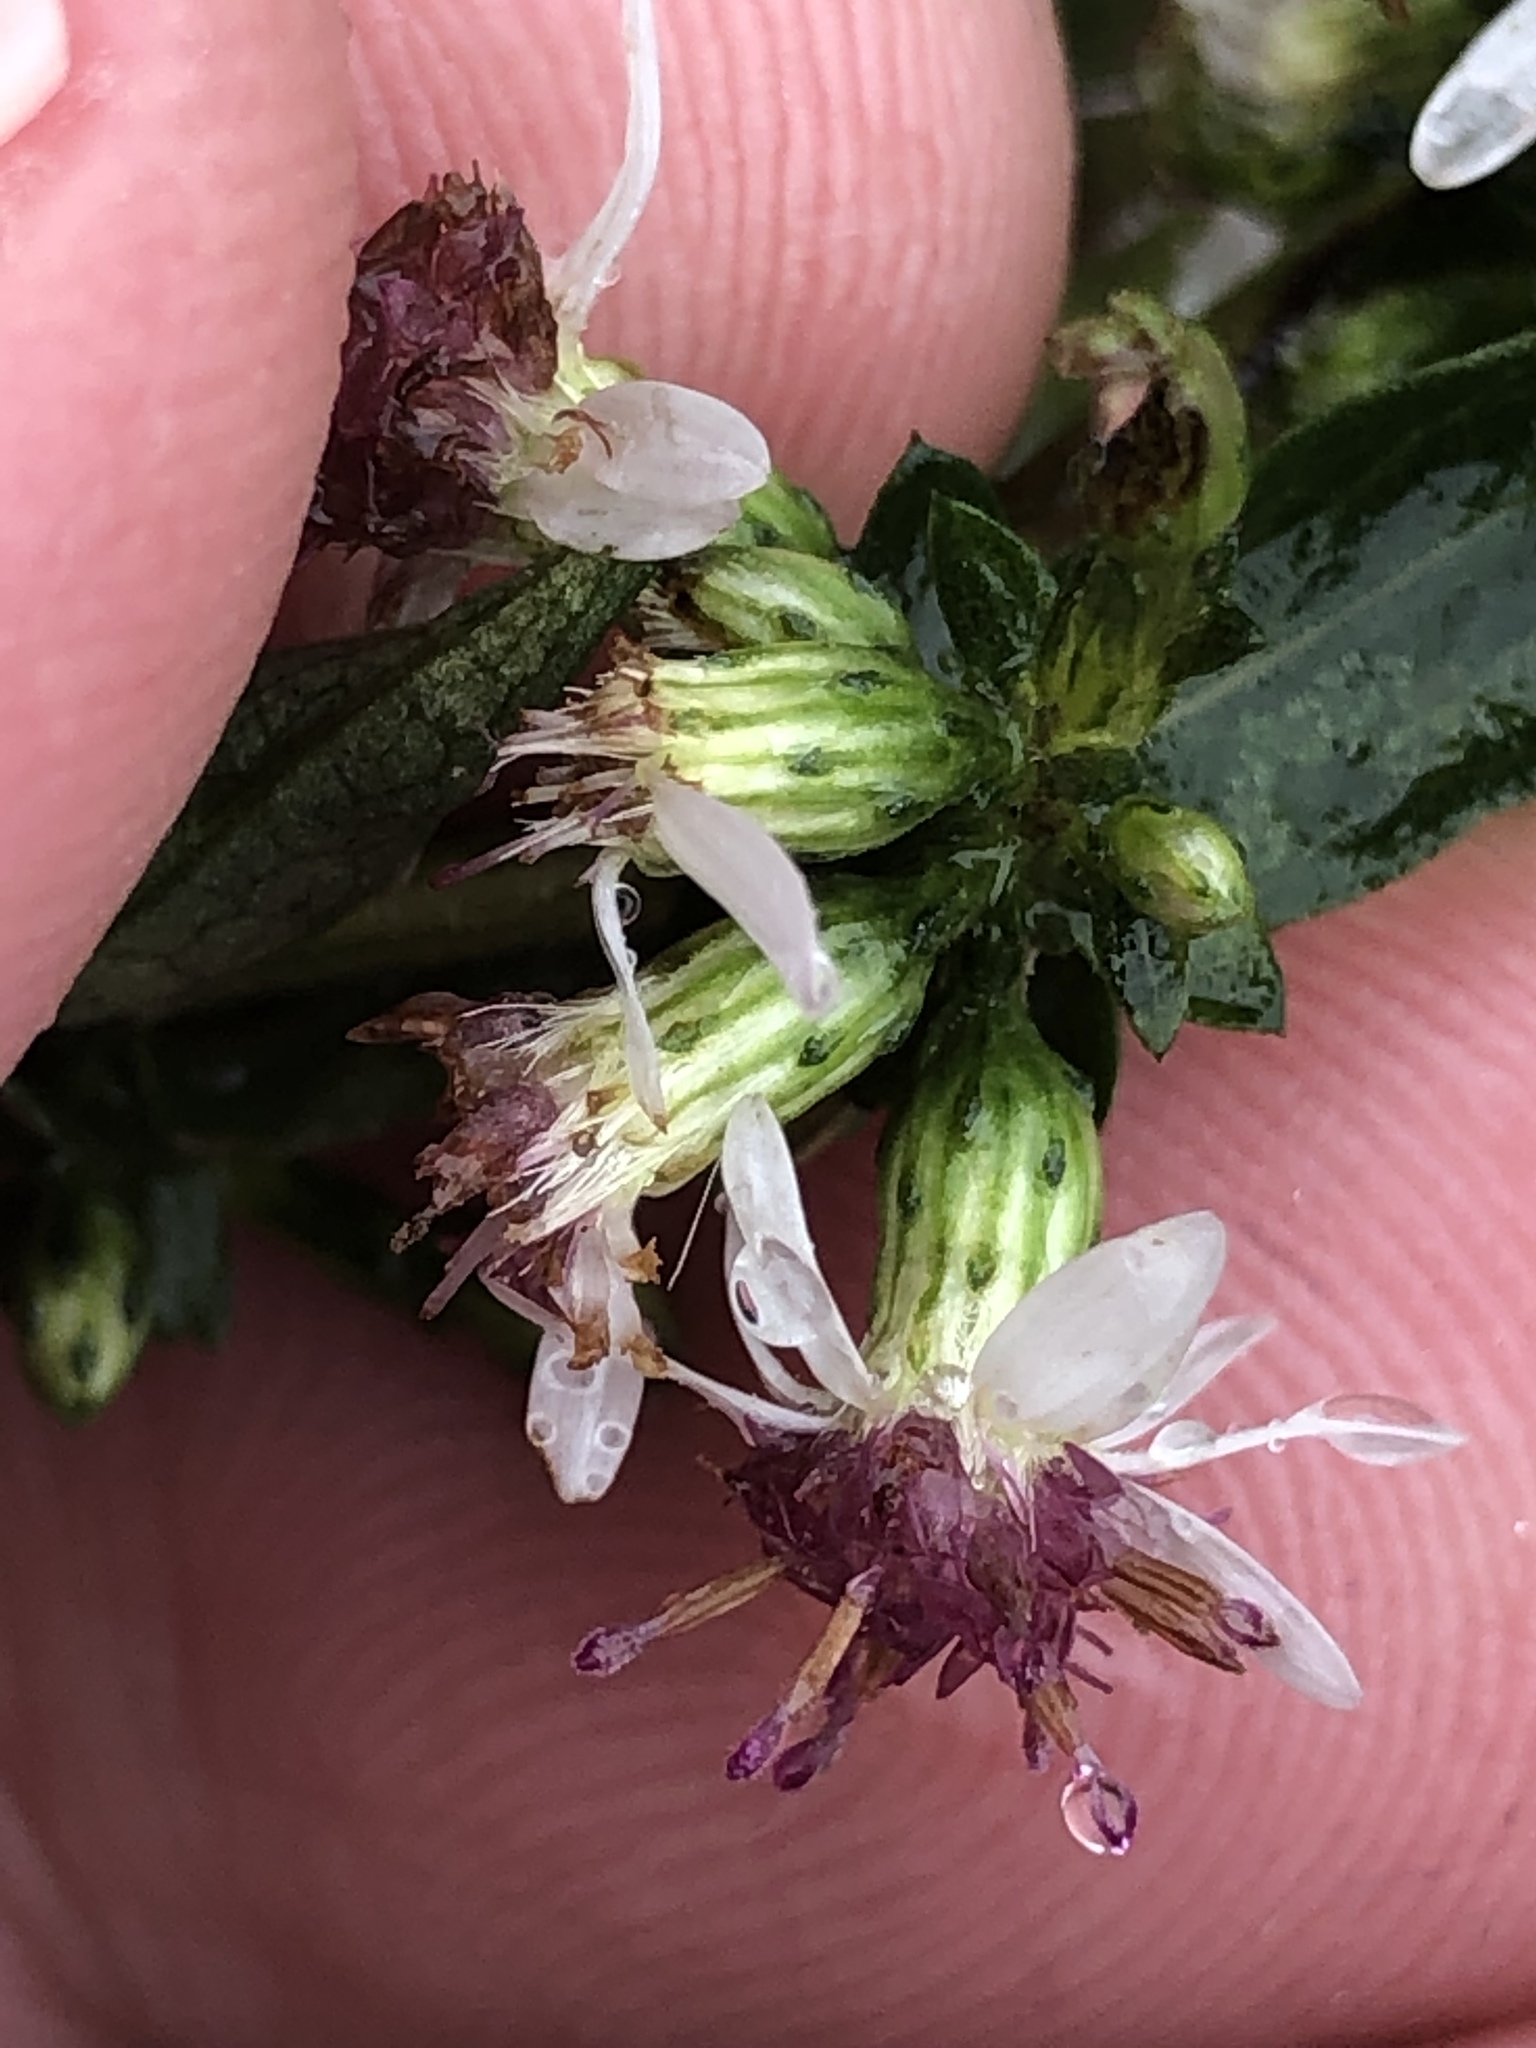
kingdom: Plantae
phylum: Tracheophyta
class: Magnoliopsida
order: Asterales
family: Asteraceae
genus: Symphyotrichum
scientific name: Symphyotrichum lateriflorum
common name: Calico aster
